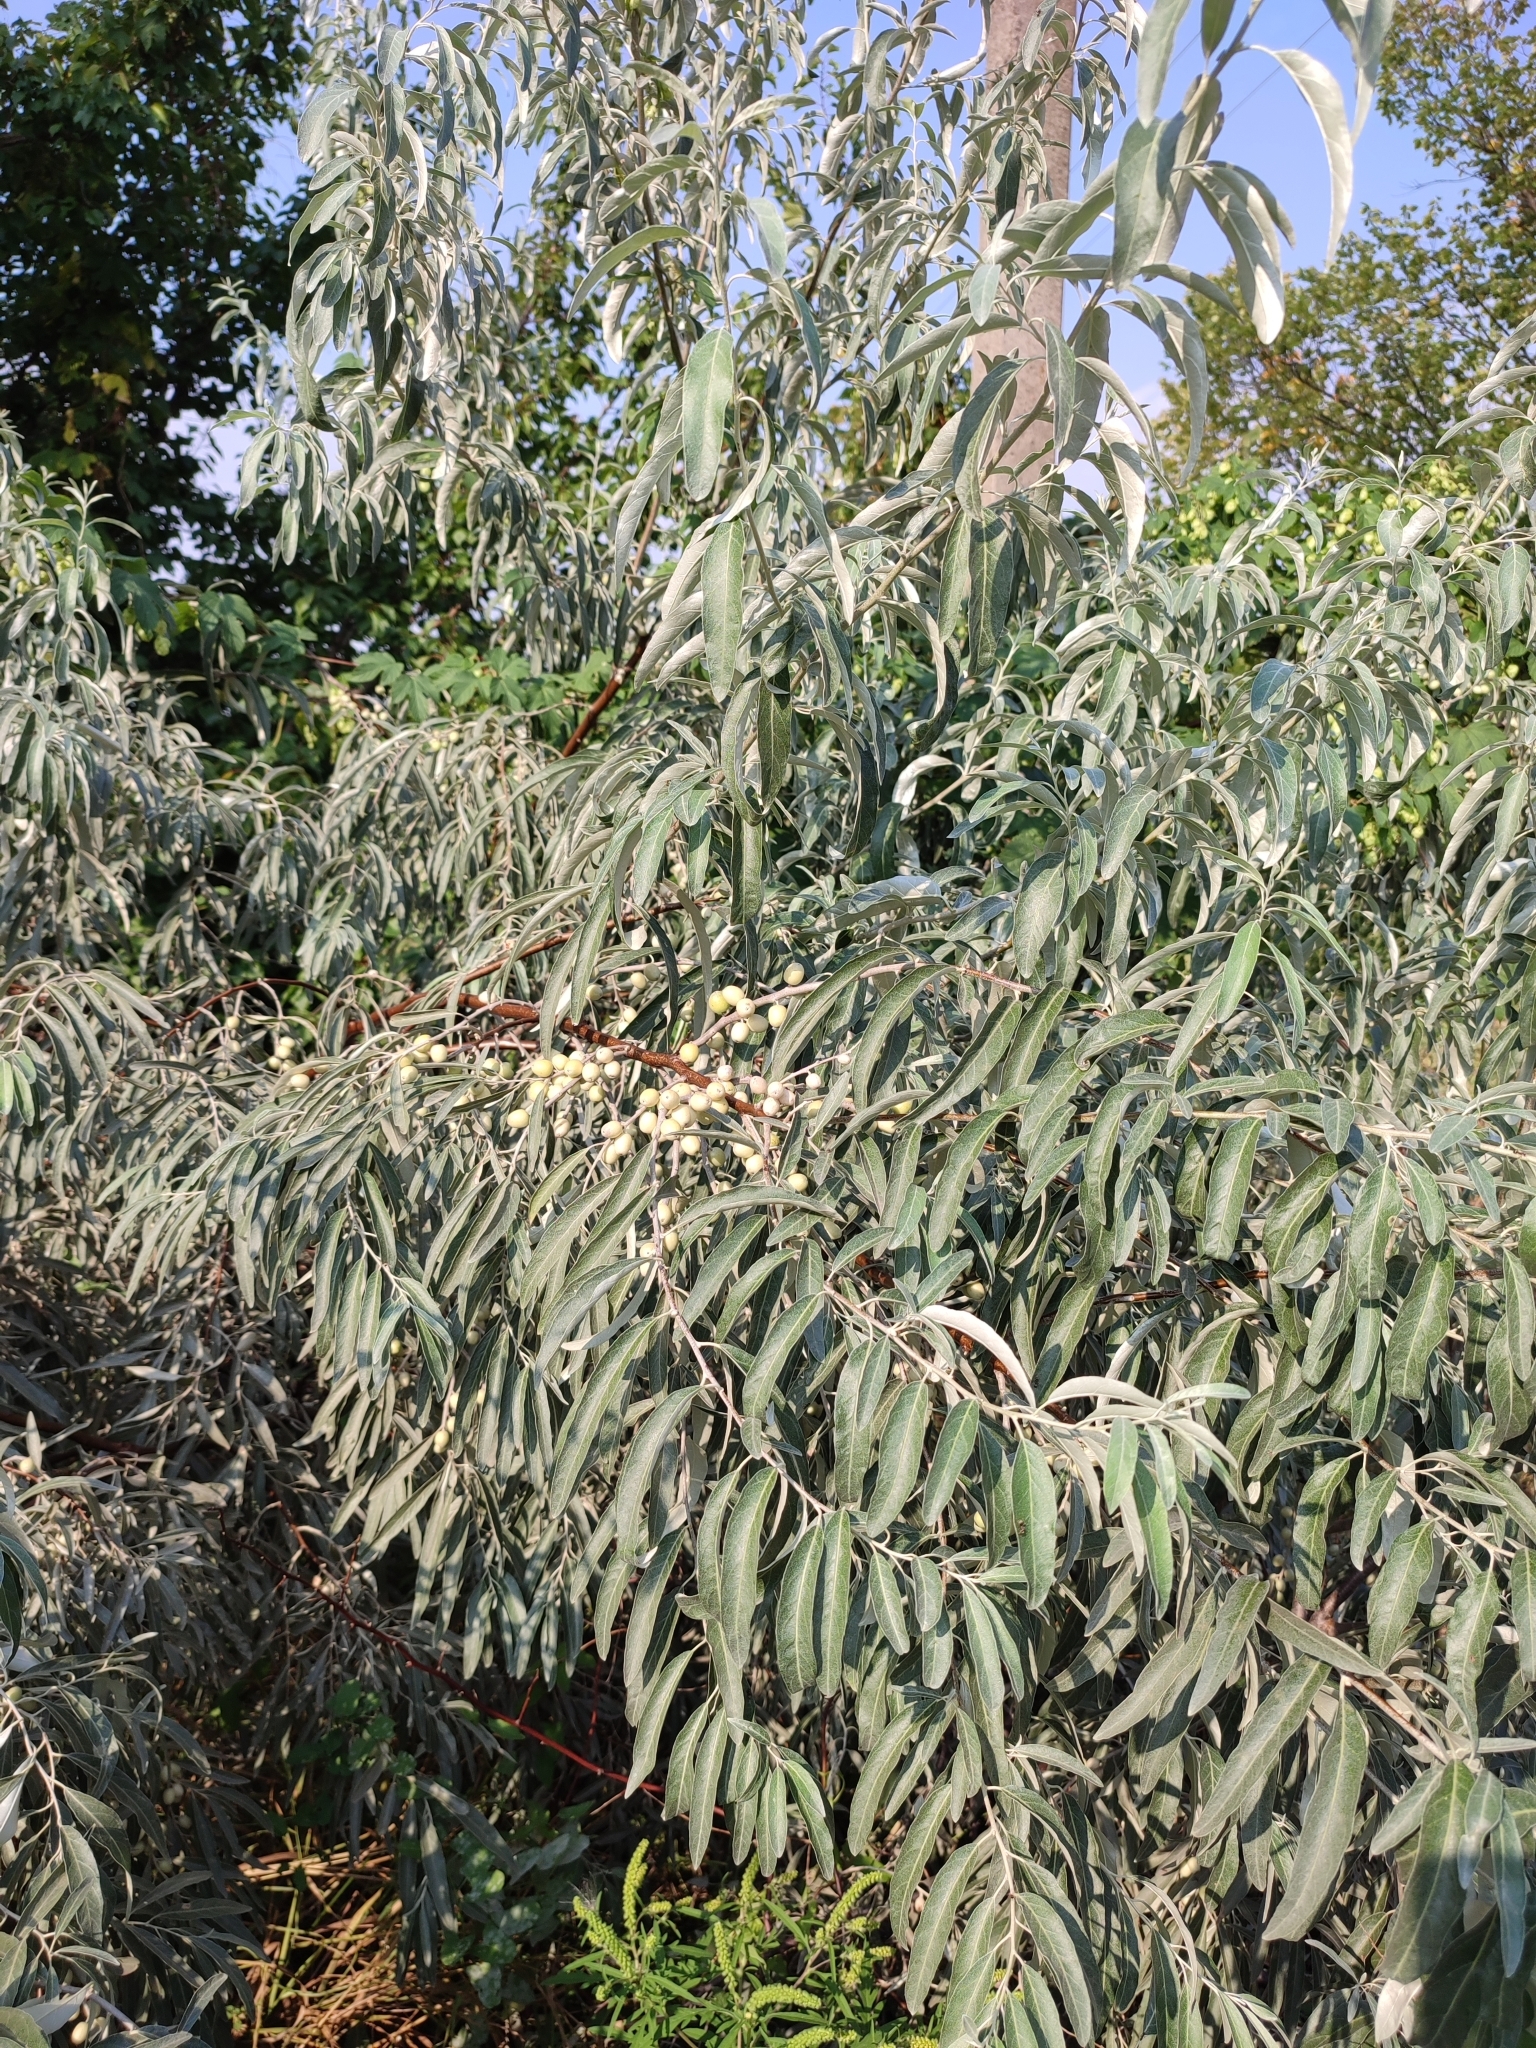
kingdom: Plantae
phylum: Tracheophyta
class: Magnoliopsida
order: Rosales
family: Elaeagnaceae
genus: Elaeagnus
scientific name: Elaeagnus angustifolia
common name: Russian olive
